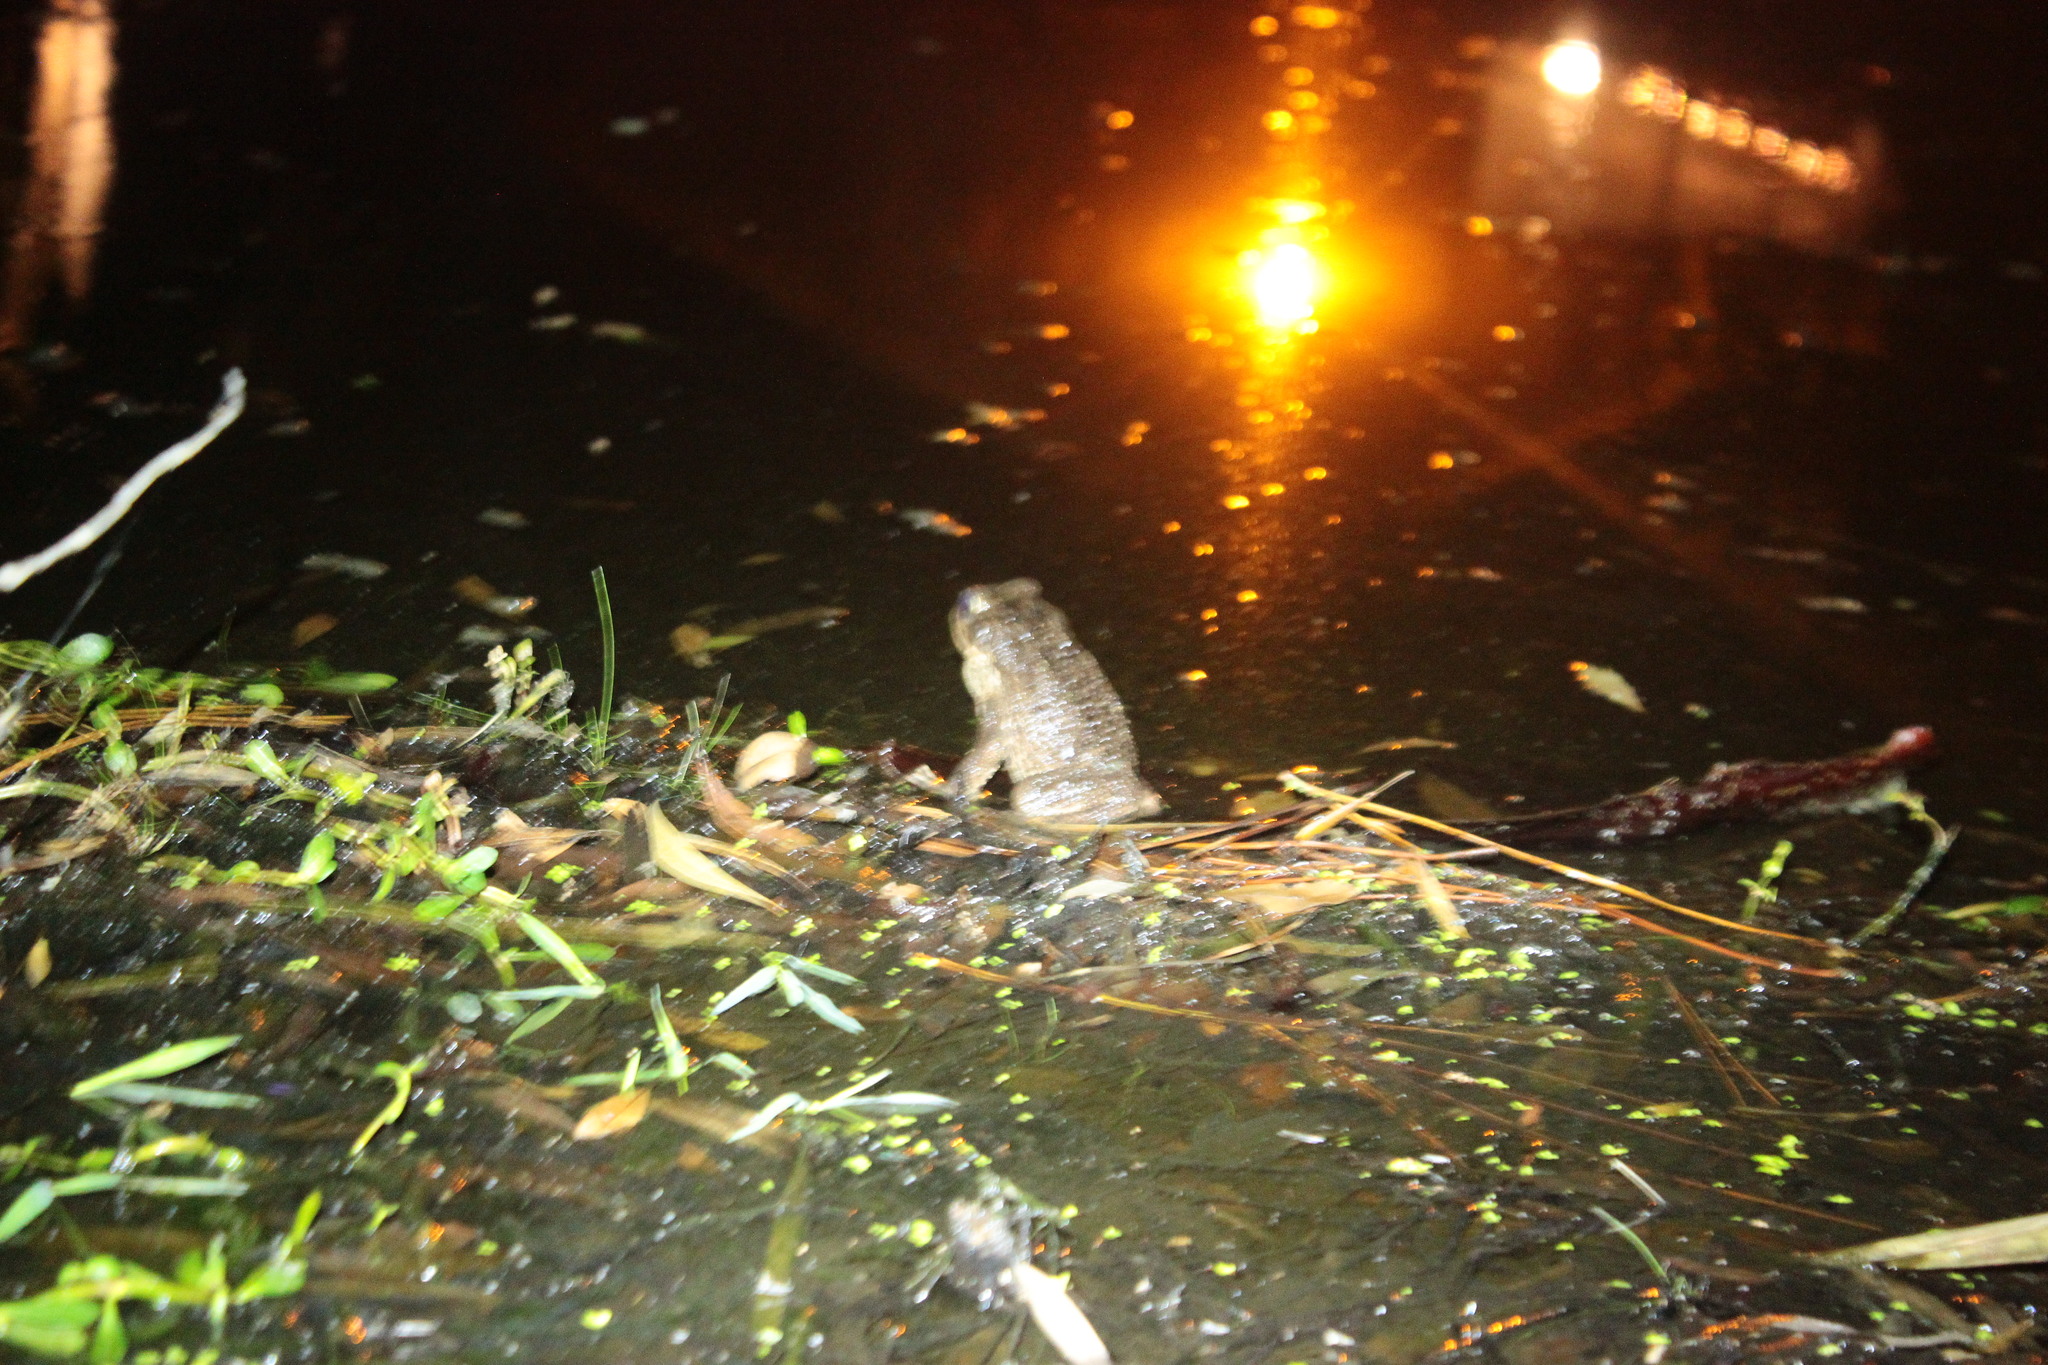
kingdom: Animalia
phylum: Chordata
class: Amphibia
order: Anura
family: Bufonidae
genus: Rhinella
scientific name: Rhinella marina
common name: Cane toad
